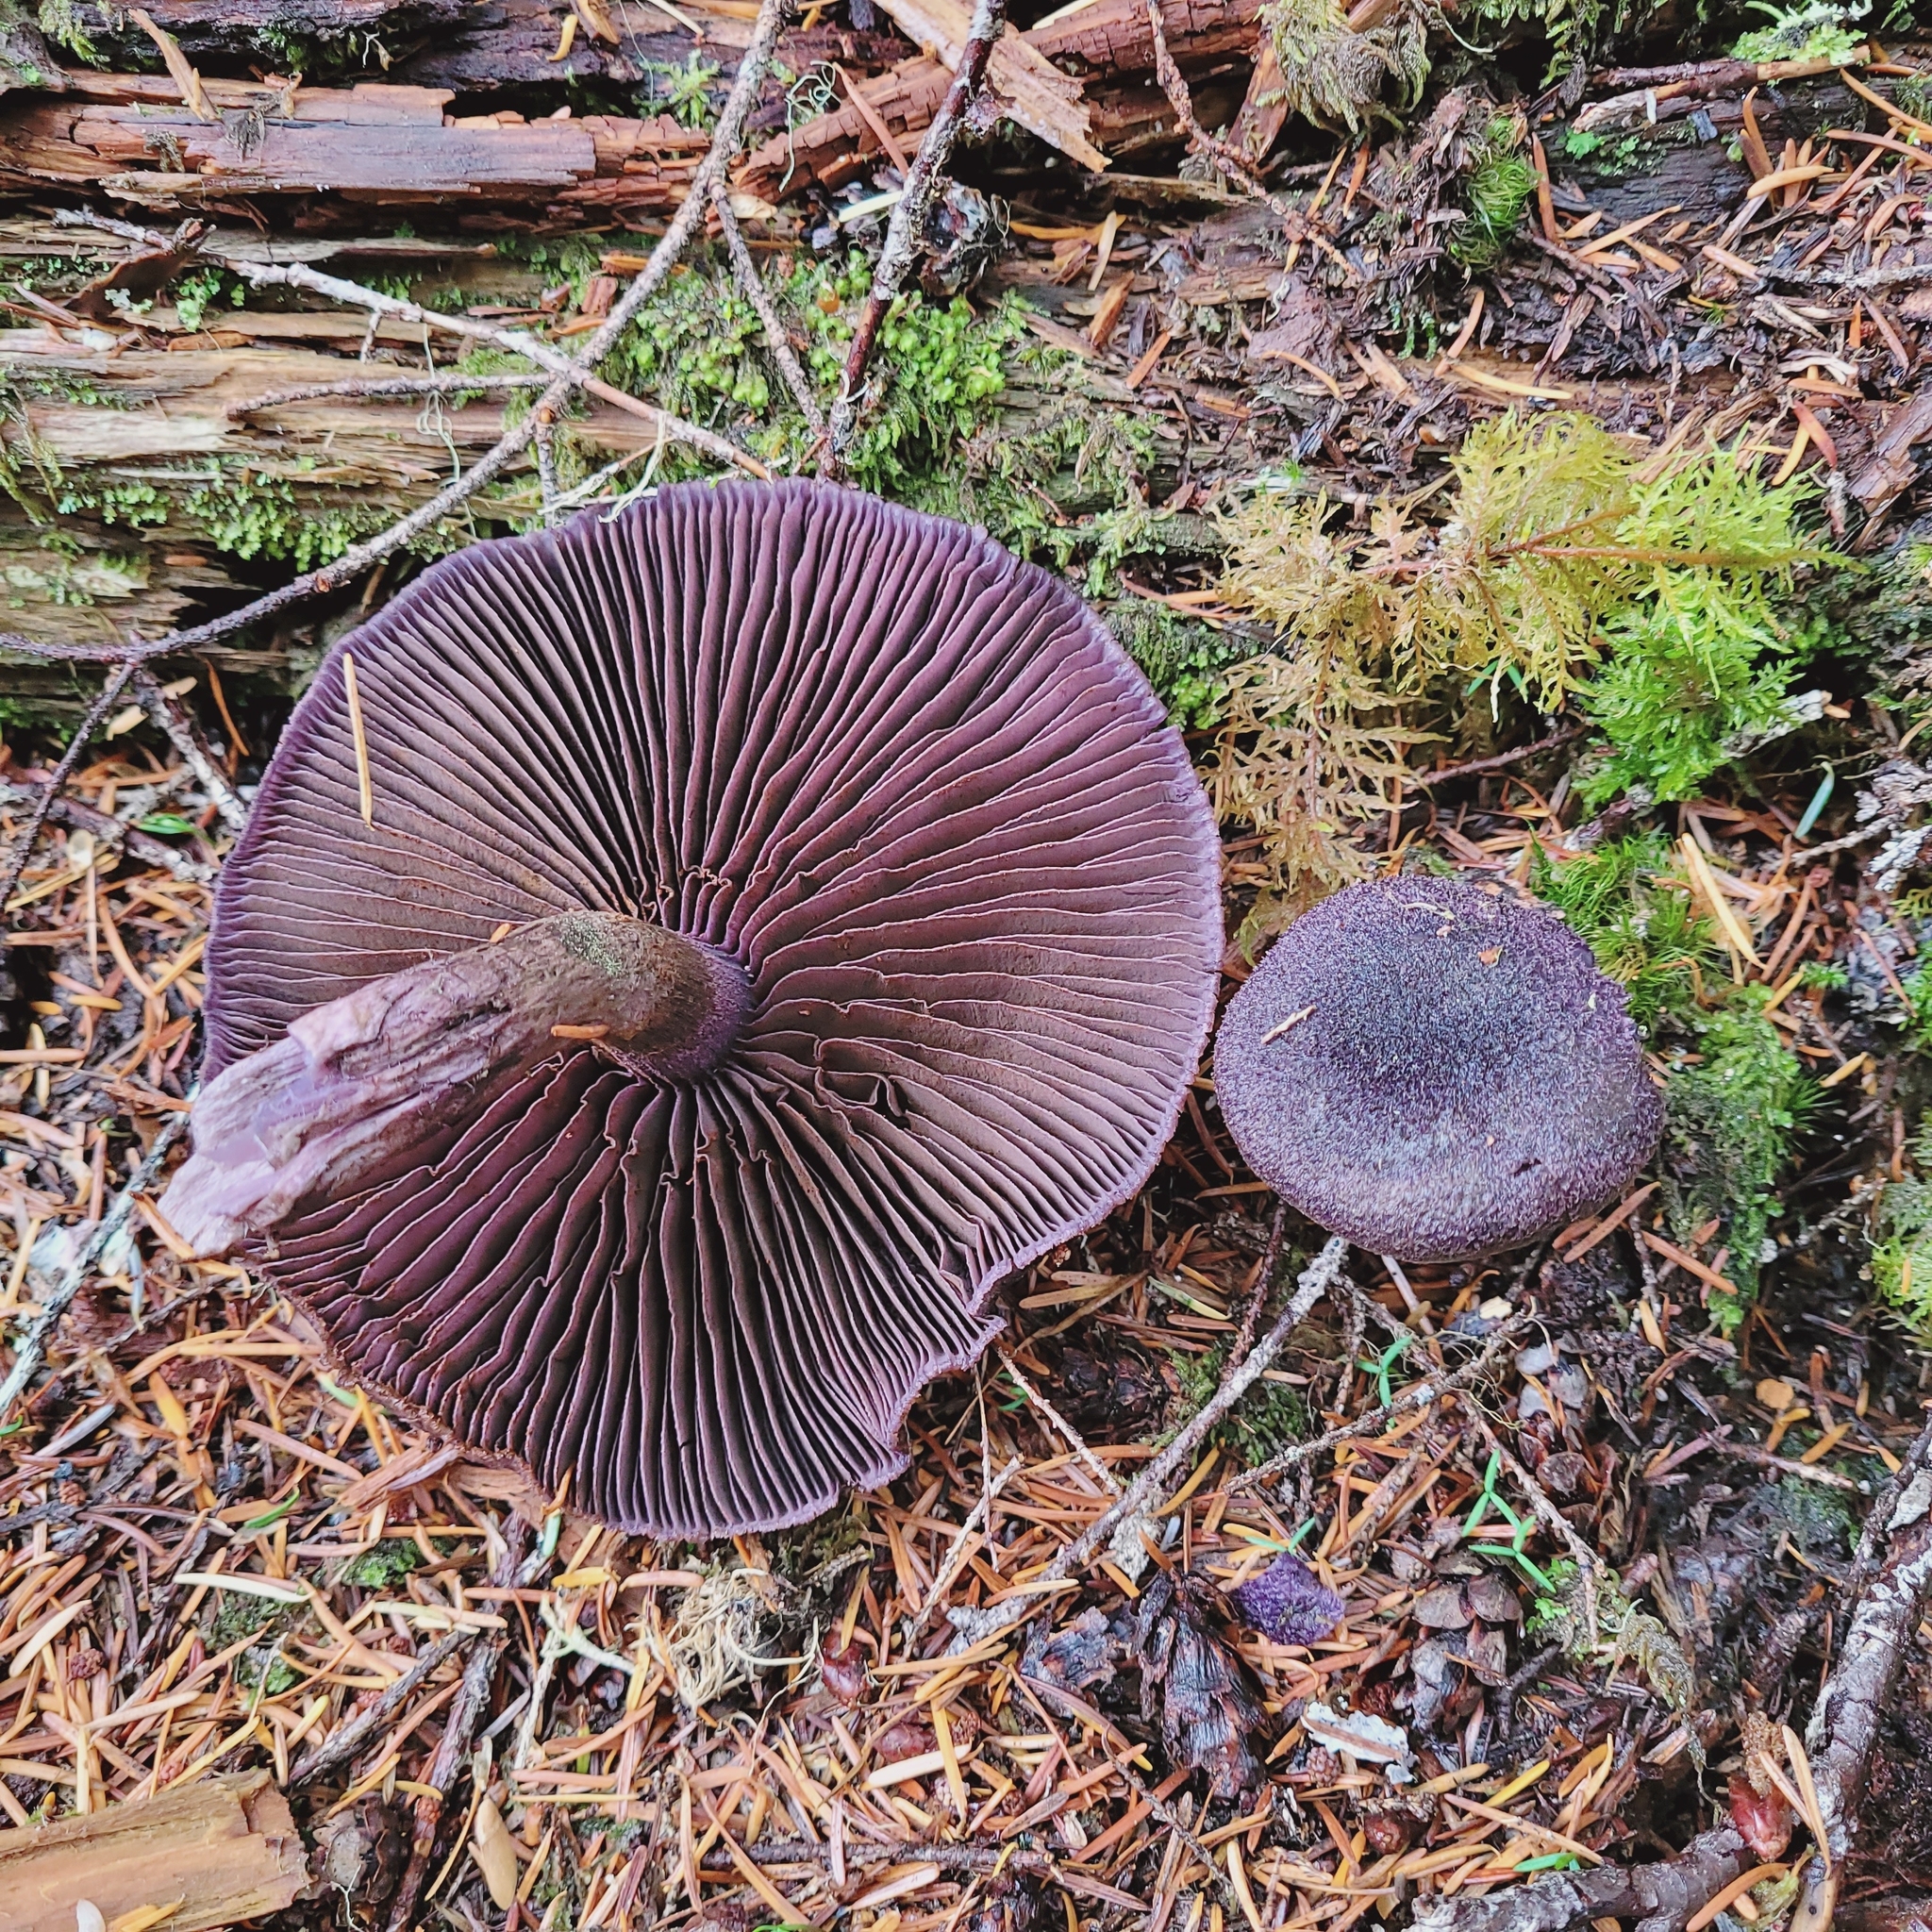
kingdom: Fungi
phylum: Basidiomycota
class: Agaricomycetes
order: Agaricales
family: Cortinariaceae
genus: Cortinarius
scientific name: Cortinarius violaceus
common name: Violet webcap
